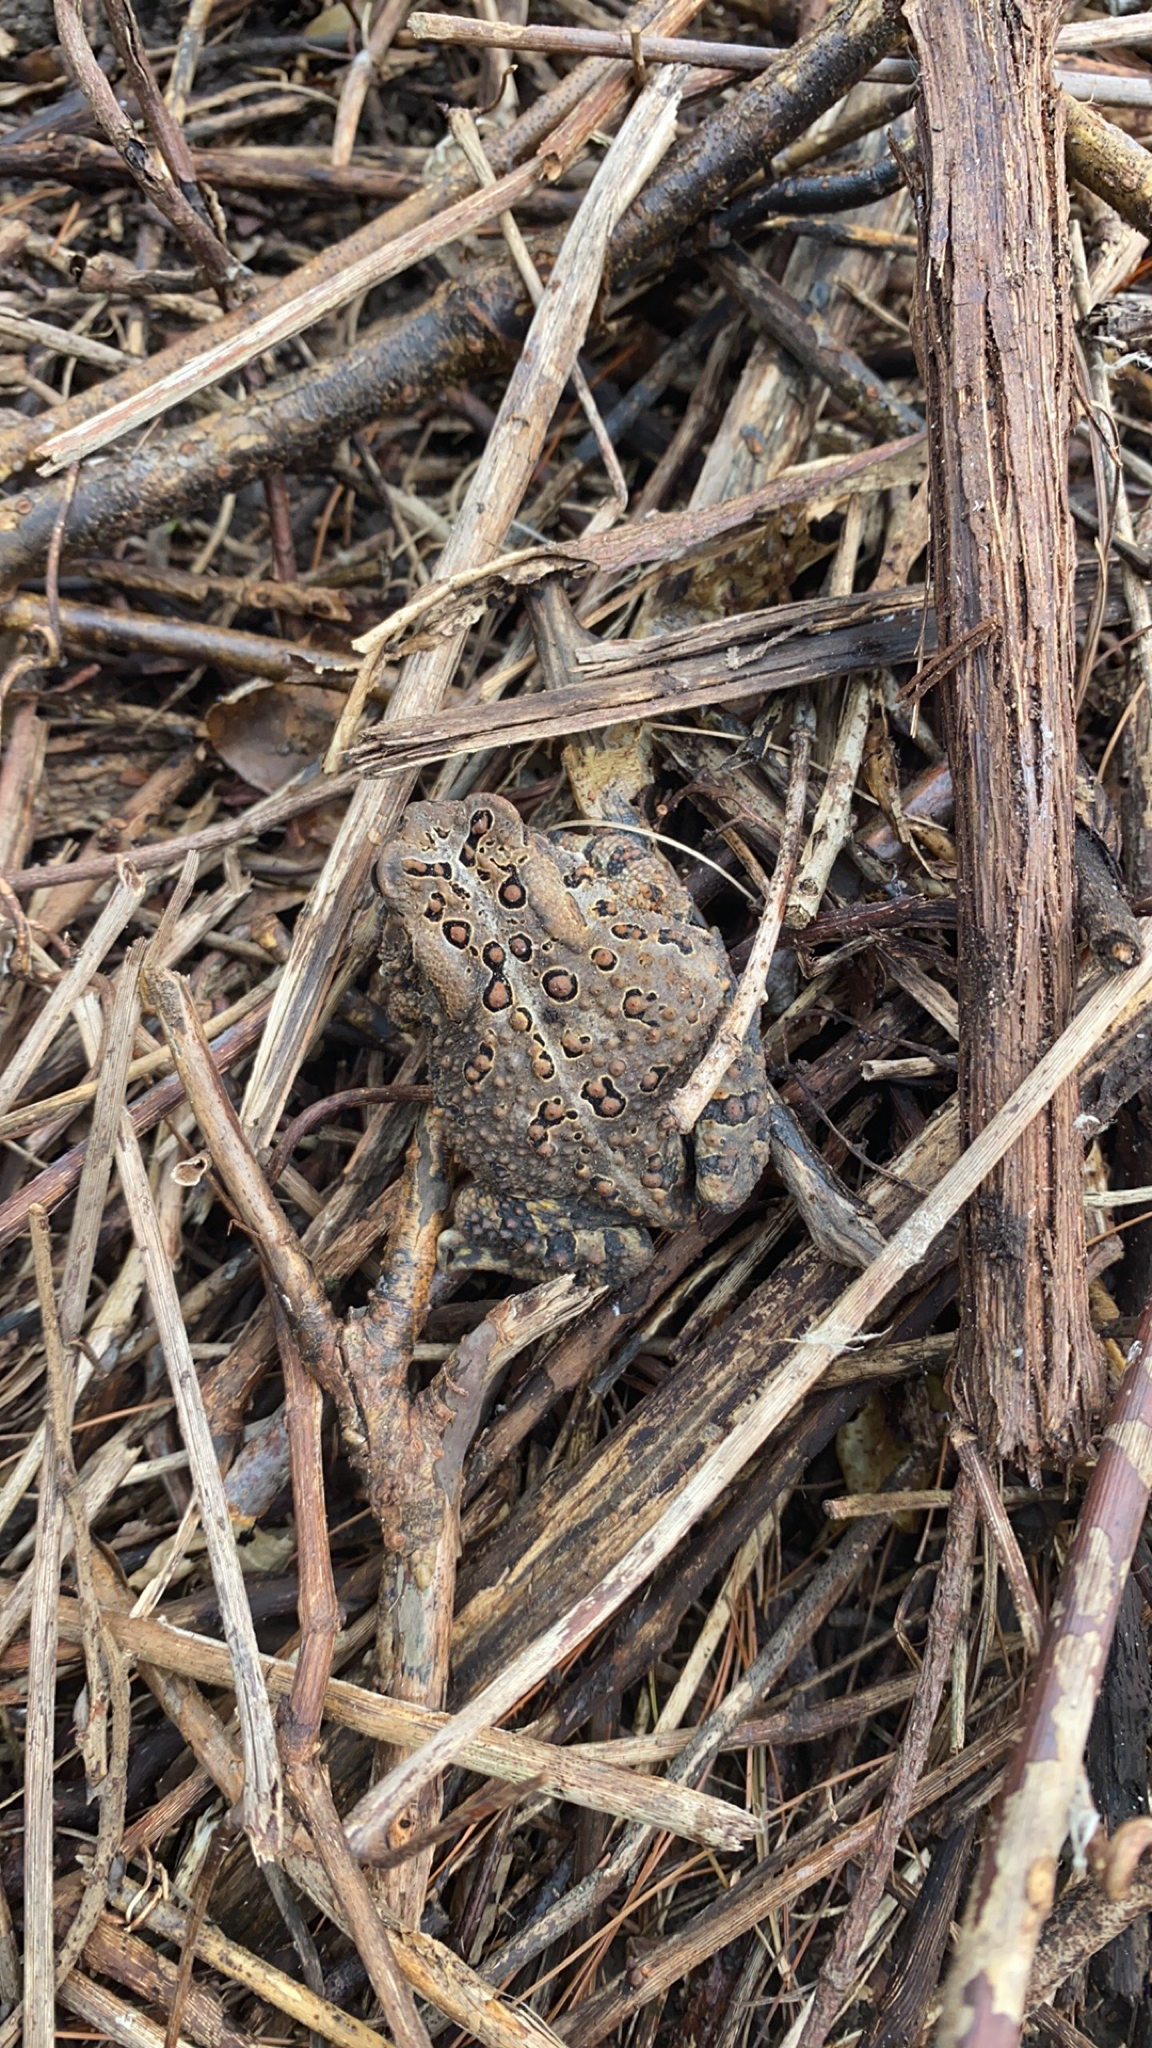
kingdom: Animalia
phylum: Chordata
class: Amphibia
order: Anura
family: Bufonidae
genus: Anaxyrus
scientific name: Anaxyrus americanus
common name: American toad
